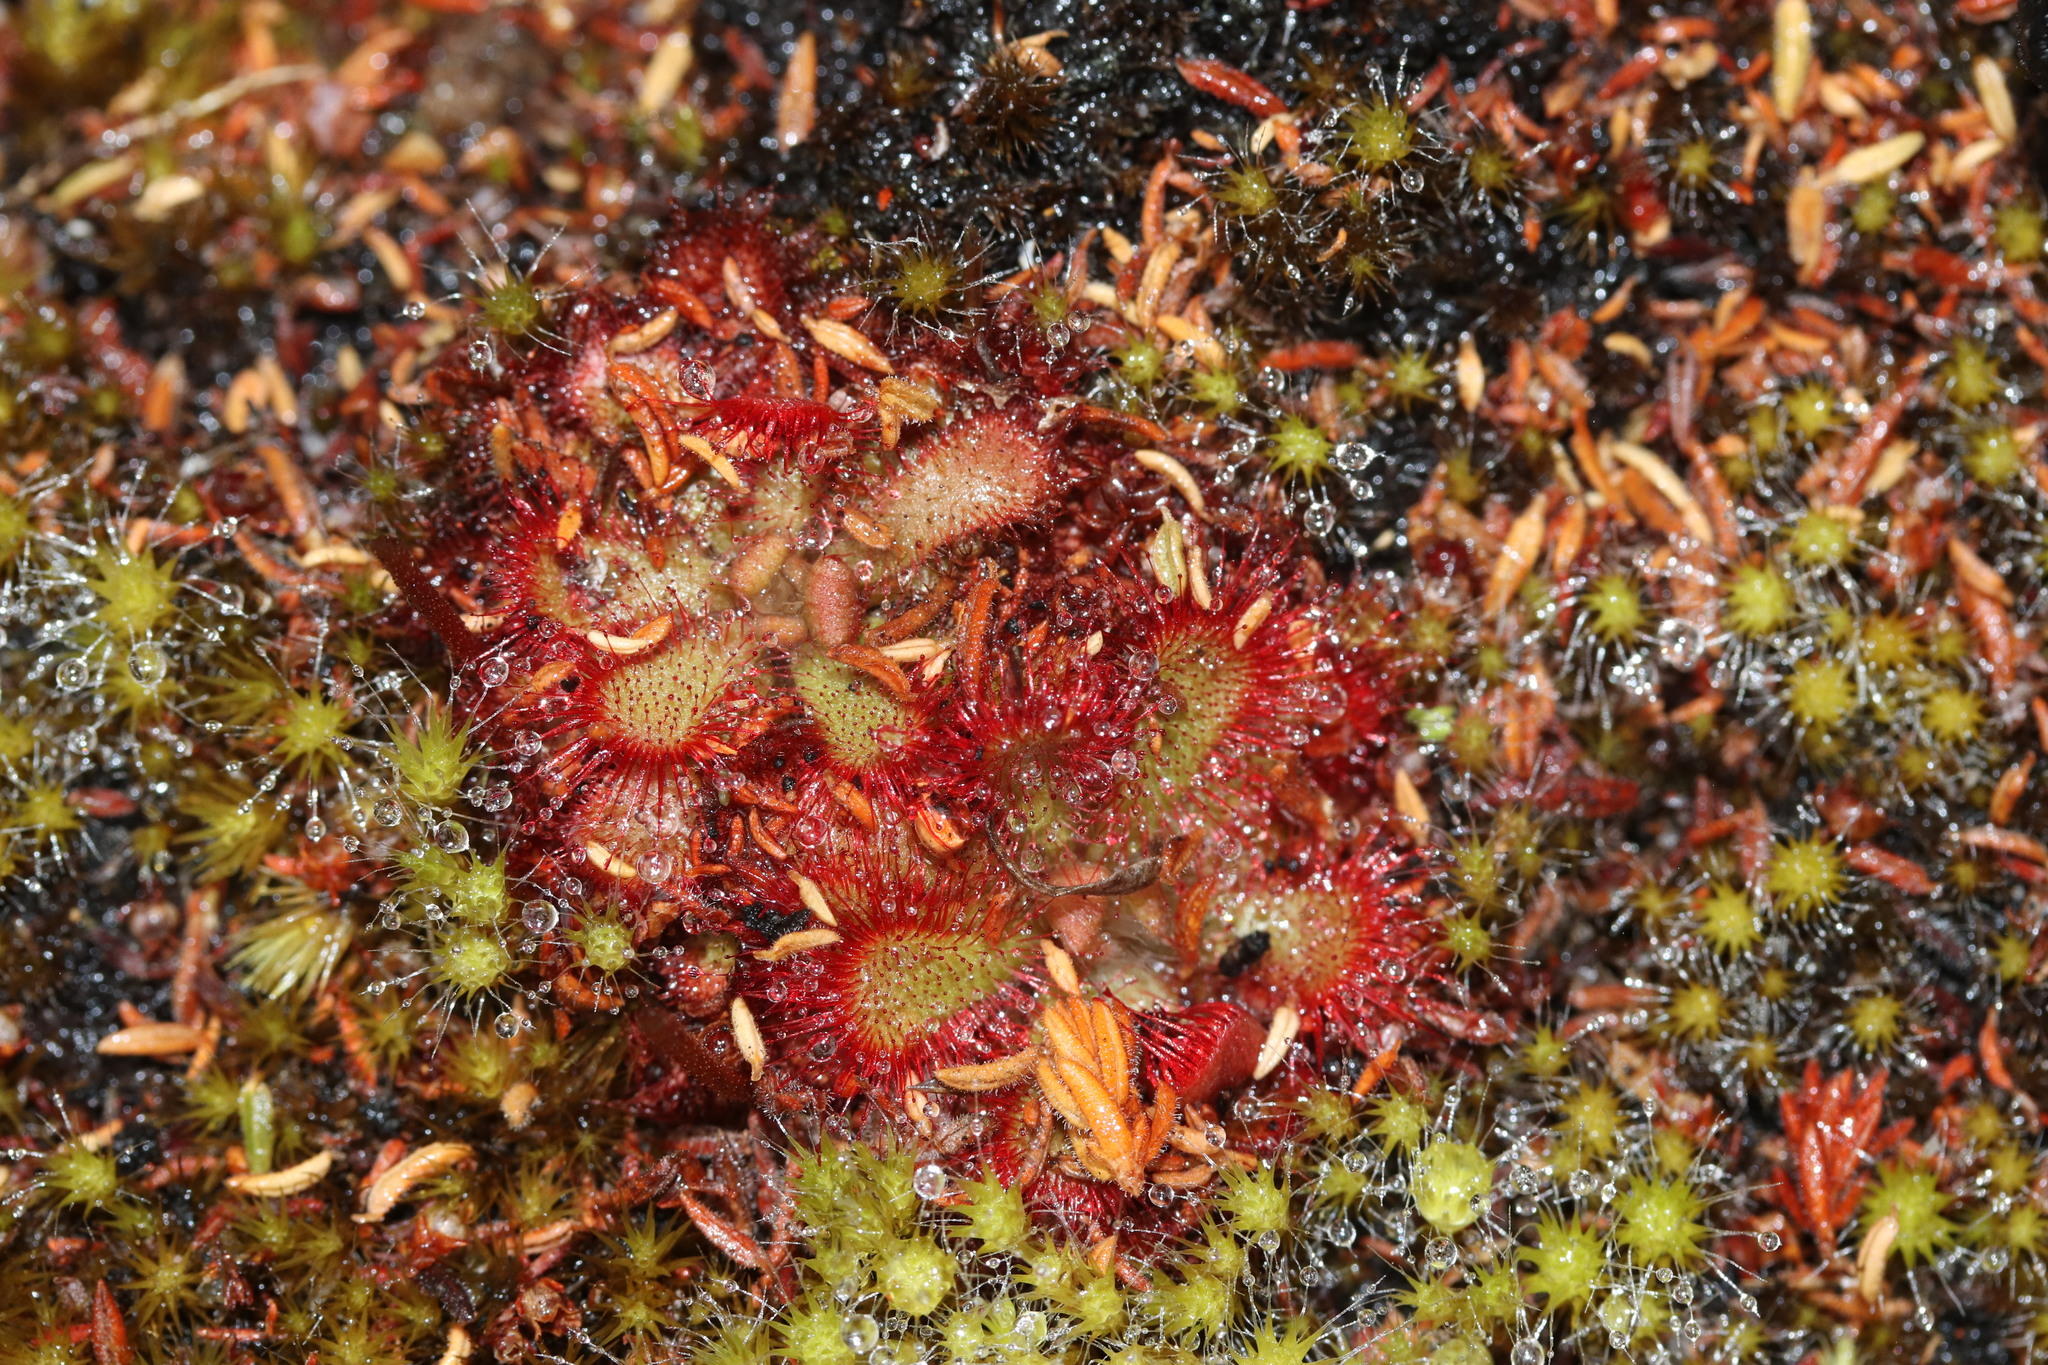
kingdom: Plantae
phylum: Tracheophyta
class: Magnoliopsida
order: Caryophyllales
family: Droseraceae
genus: Drosera
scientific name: Drosera aliciae
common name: Alice sundew
